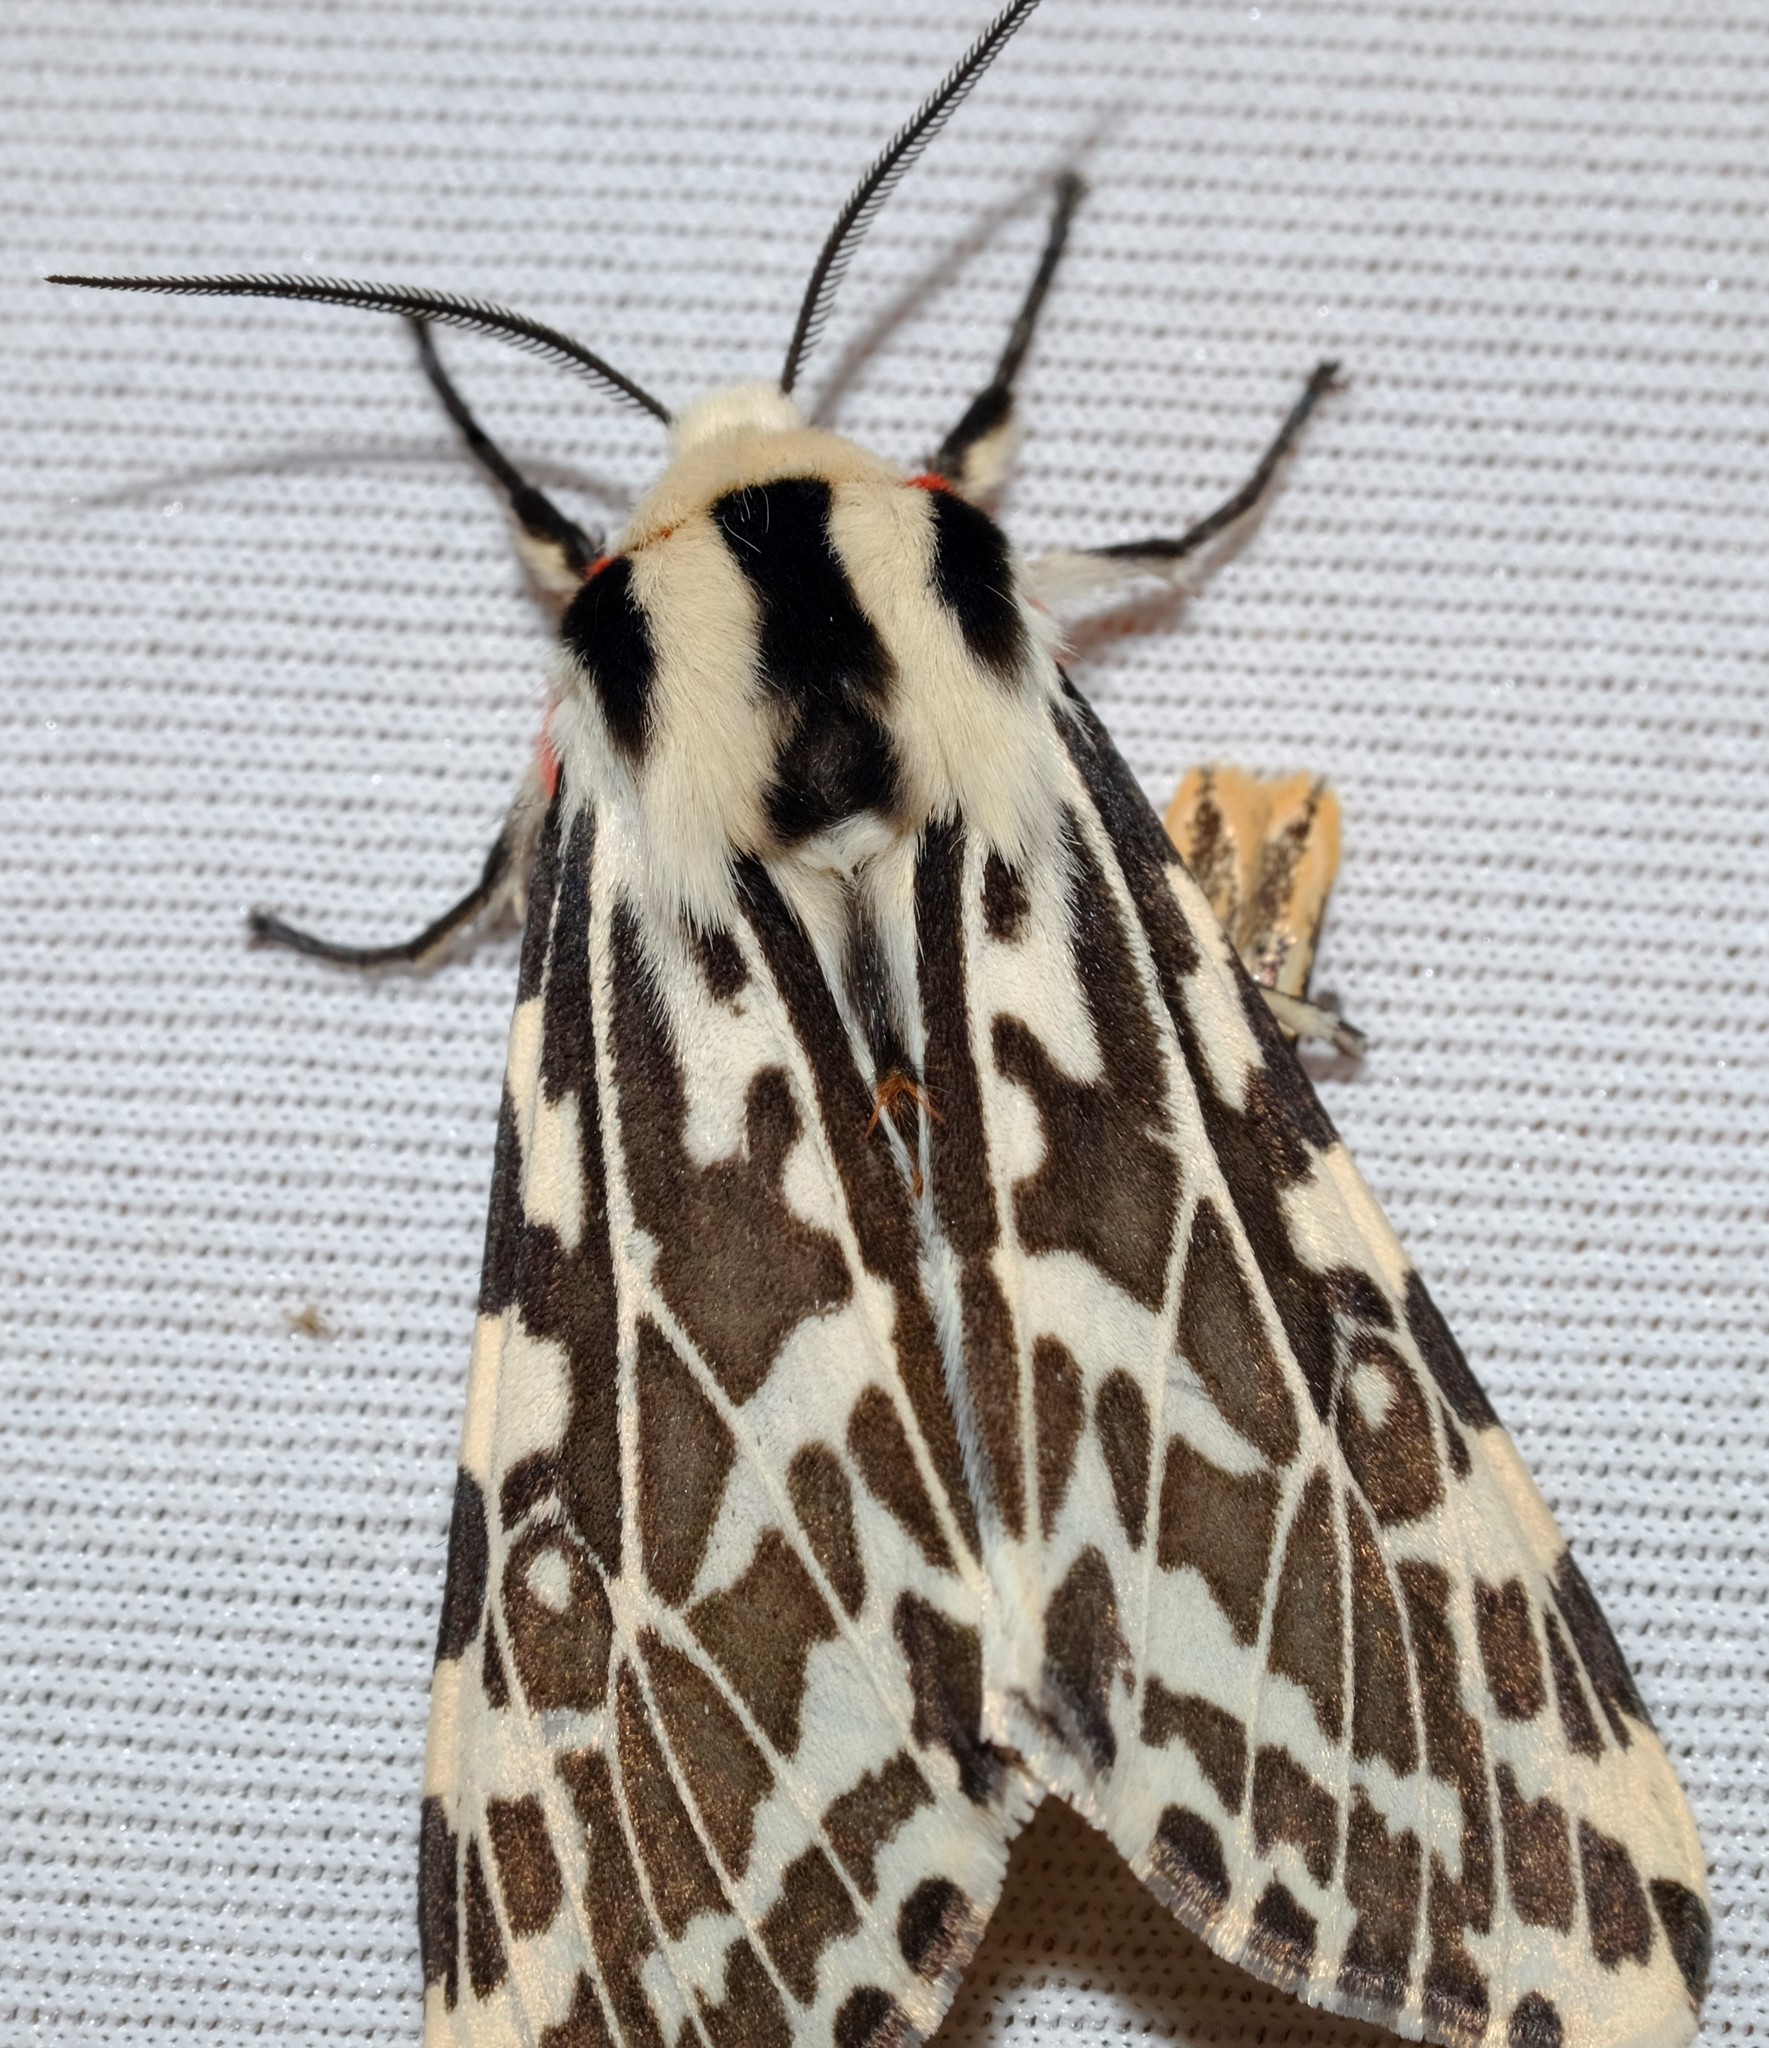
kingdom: Animalia
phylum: Arthropoda
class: Insecta
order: Lepidoptera
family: Erebidae
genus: Ardices
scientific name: Ardices glatignyi
